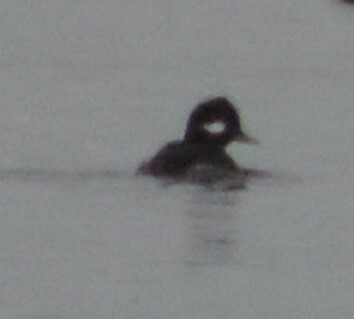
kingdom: Animalia
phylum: Chordata
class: Aves
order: Anseriformes
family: Anatidae
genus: Bucephala
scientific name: Bucephala albeola
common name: Bufflehead
